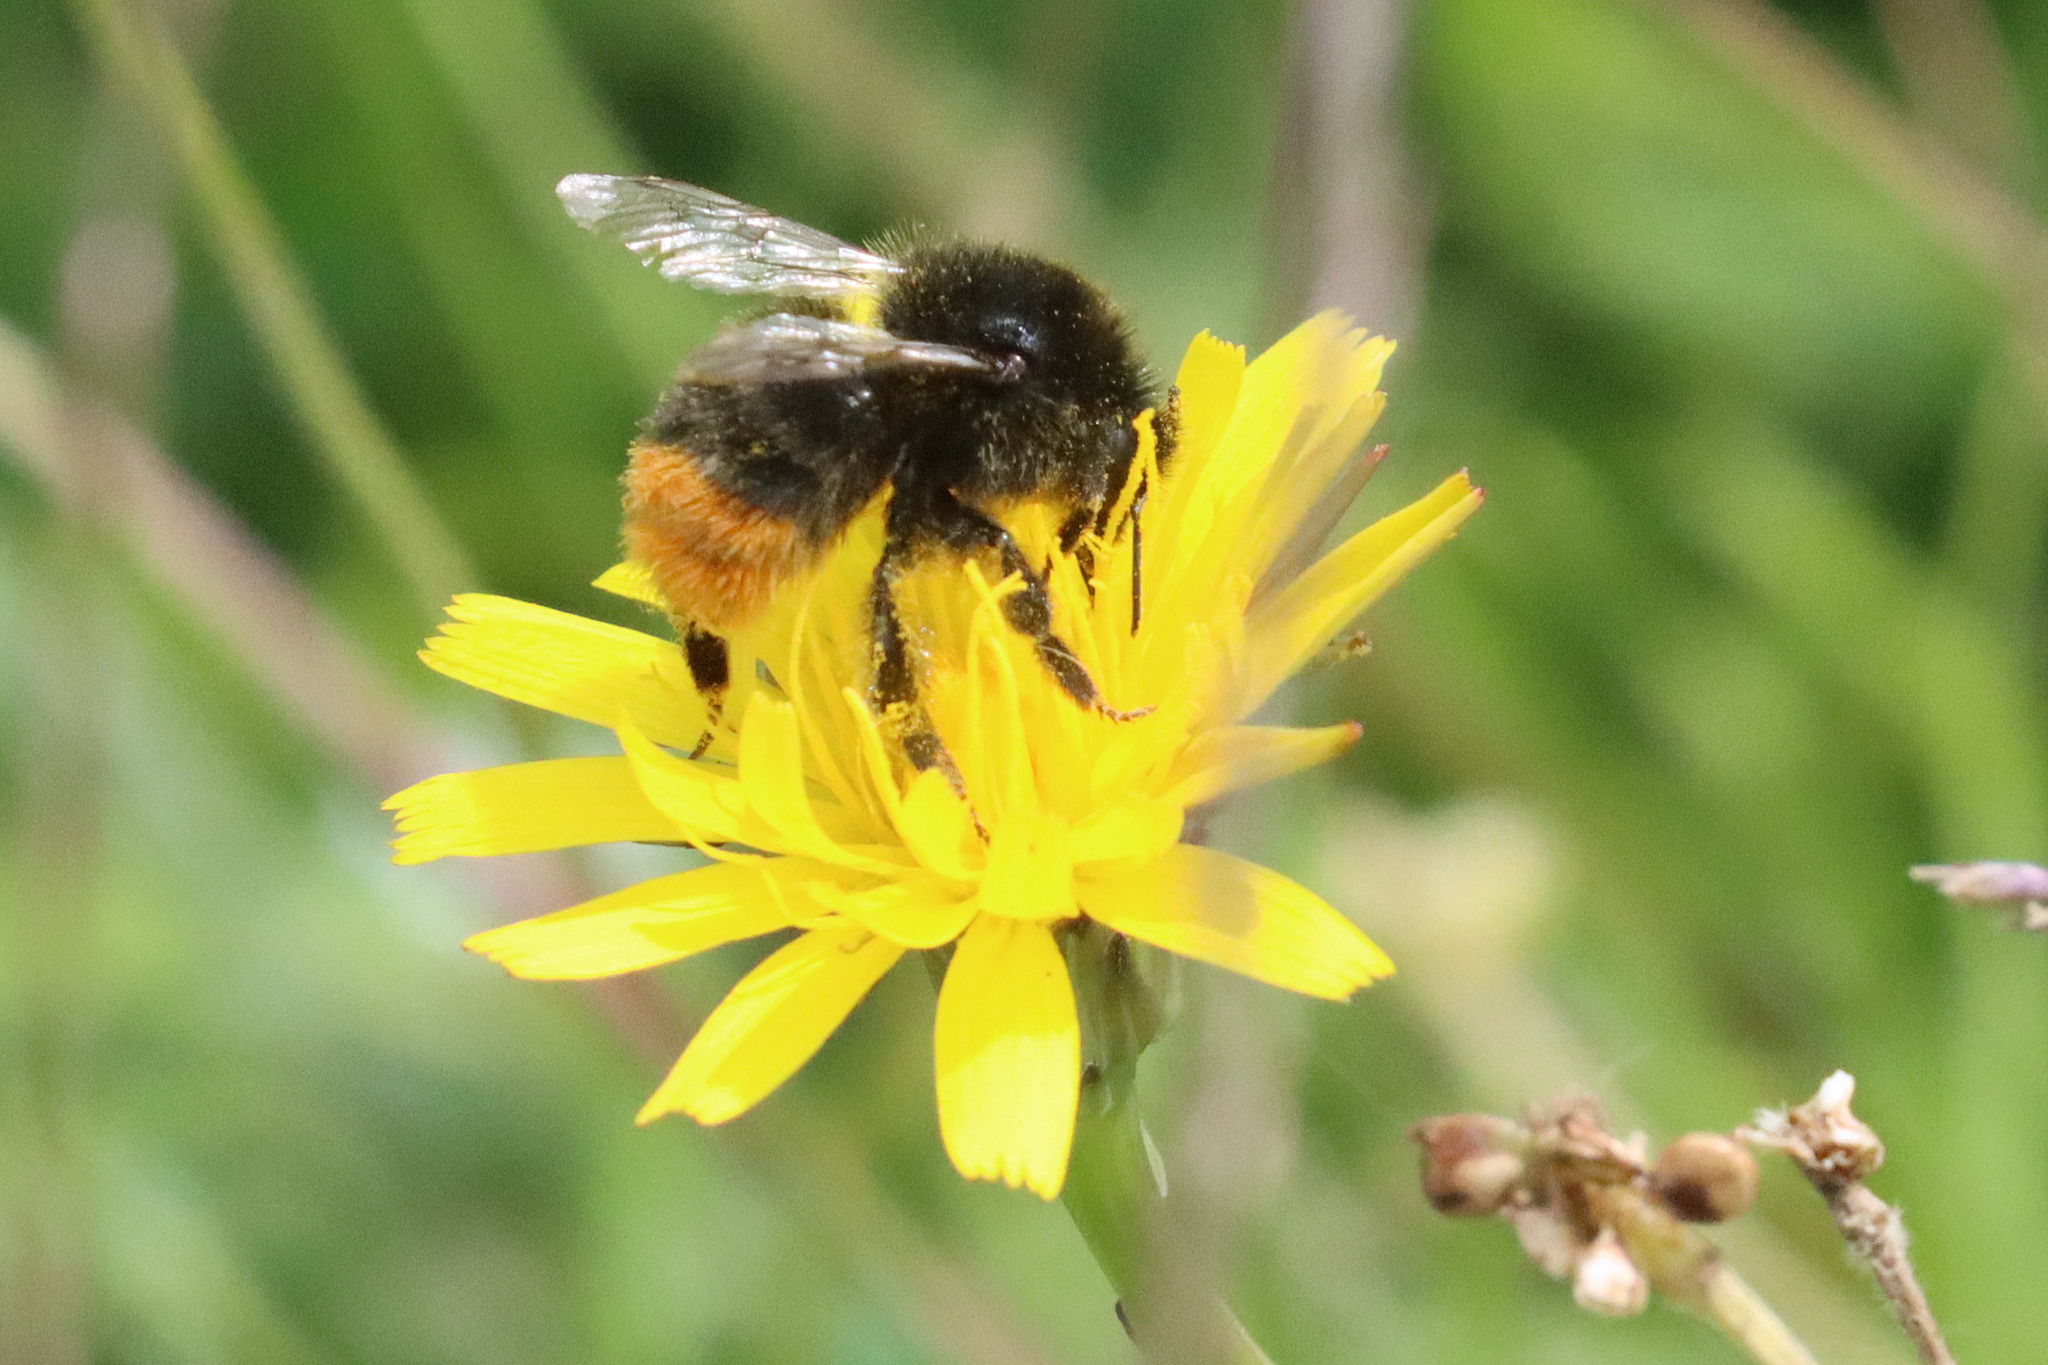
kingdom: Animalia
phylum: Arthropoda
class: Insecta
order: Hymenoptera
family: Apidae
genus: Bombus
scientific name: Bombus lapidarius
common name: Large red-tailed humble-bee
